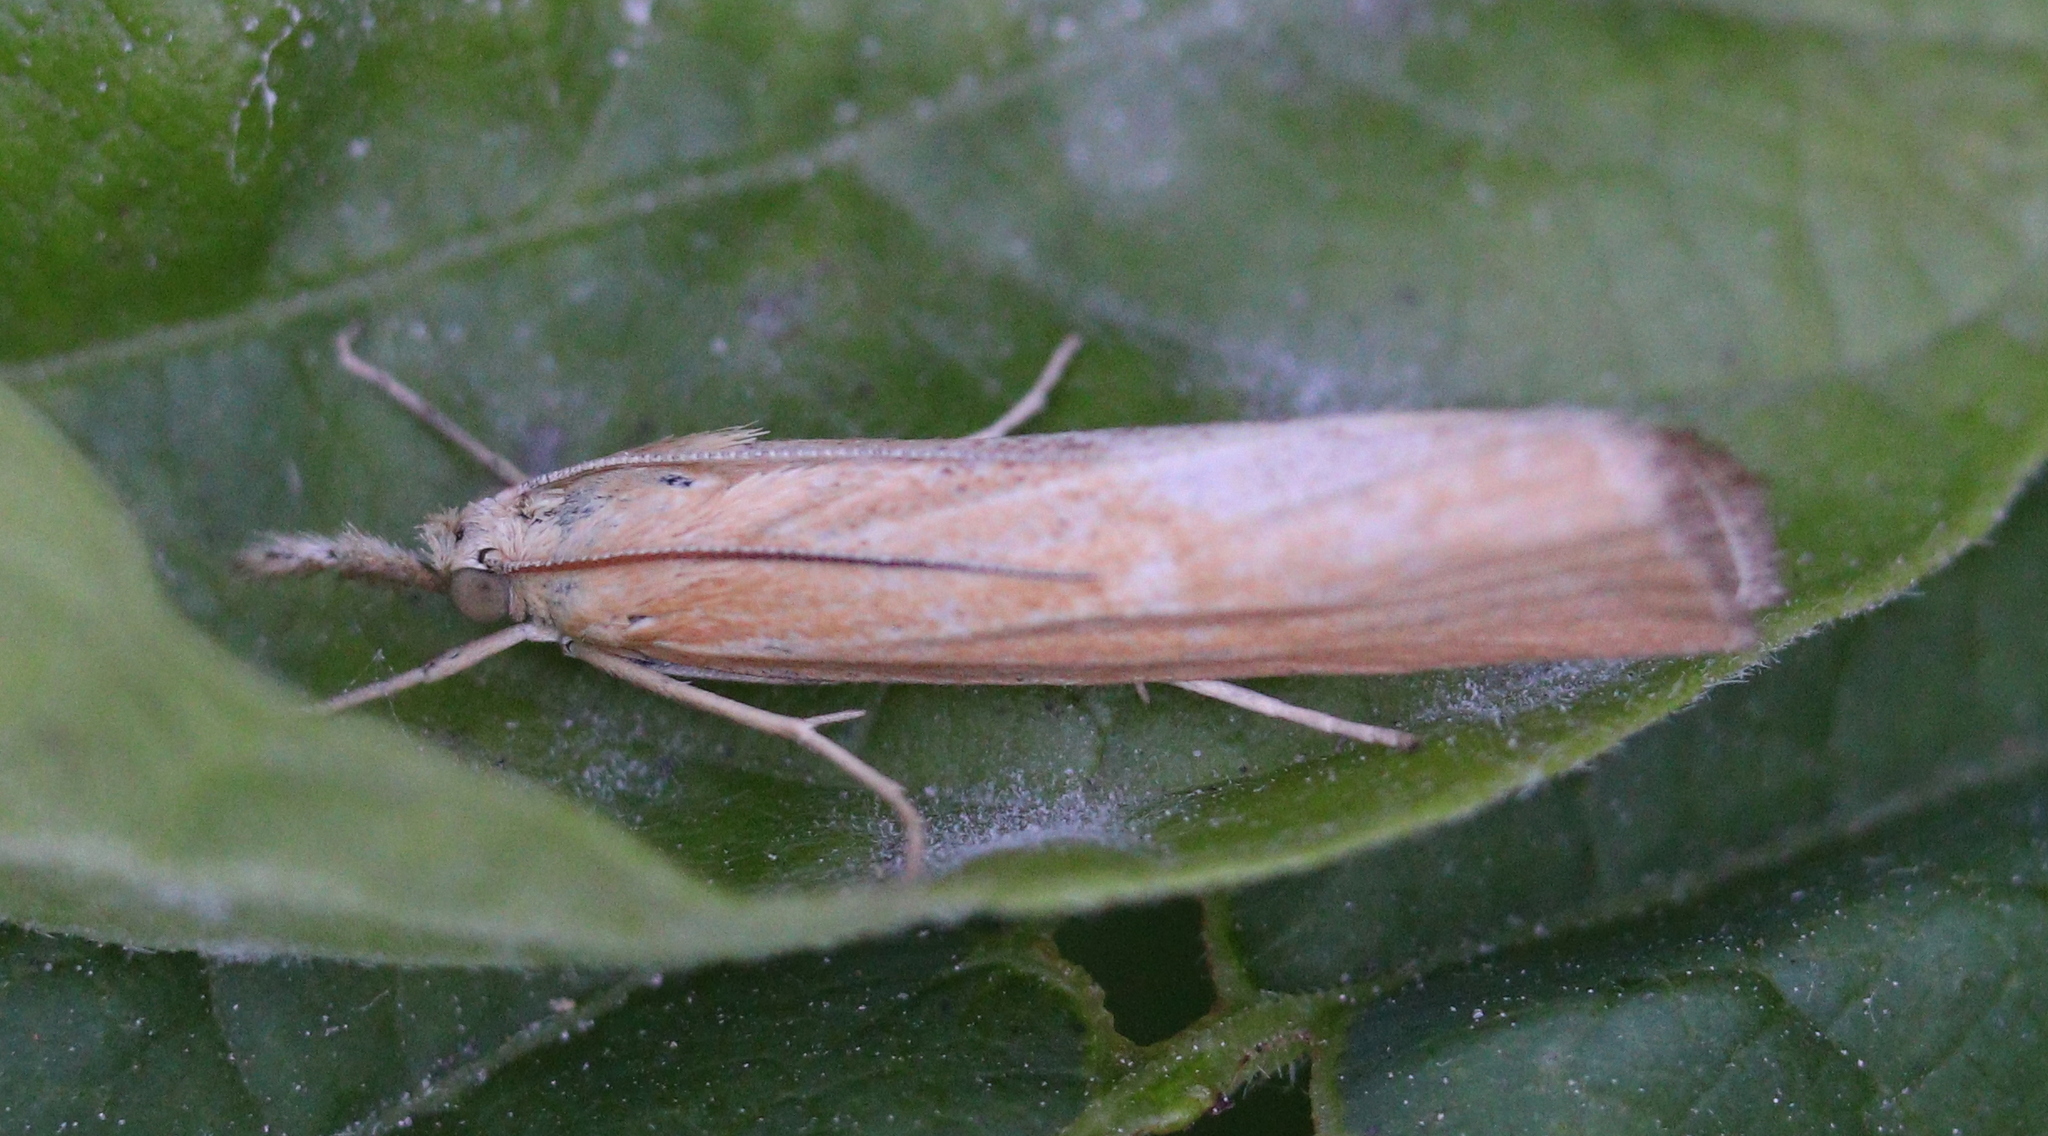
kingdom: Animalia
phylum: Arthropoda
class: Insecta
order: Lepidoptera
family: Crambidae
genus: Pediasia
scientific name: Pediasia luteella
